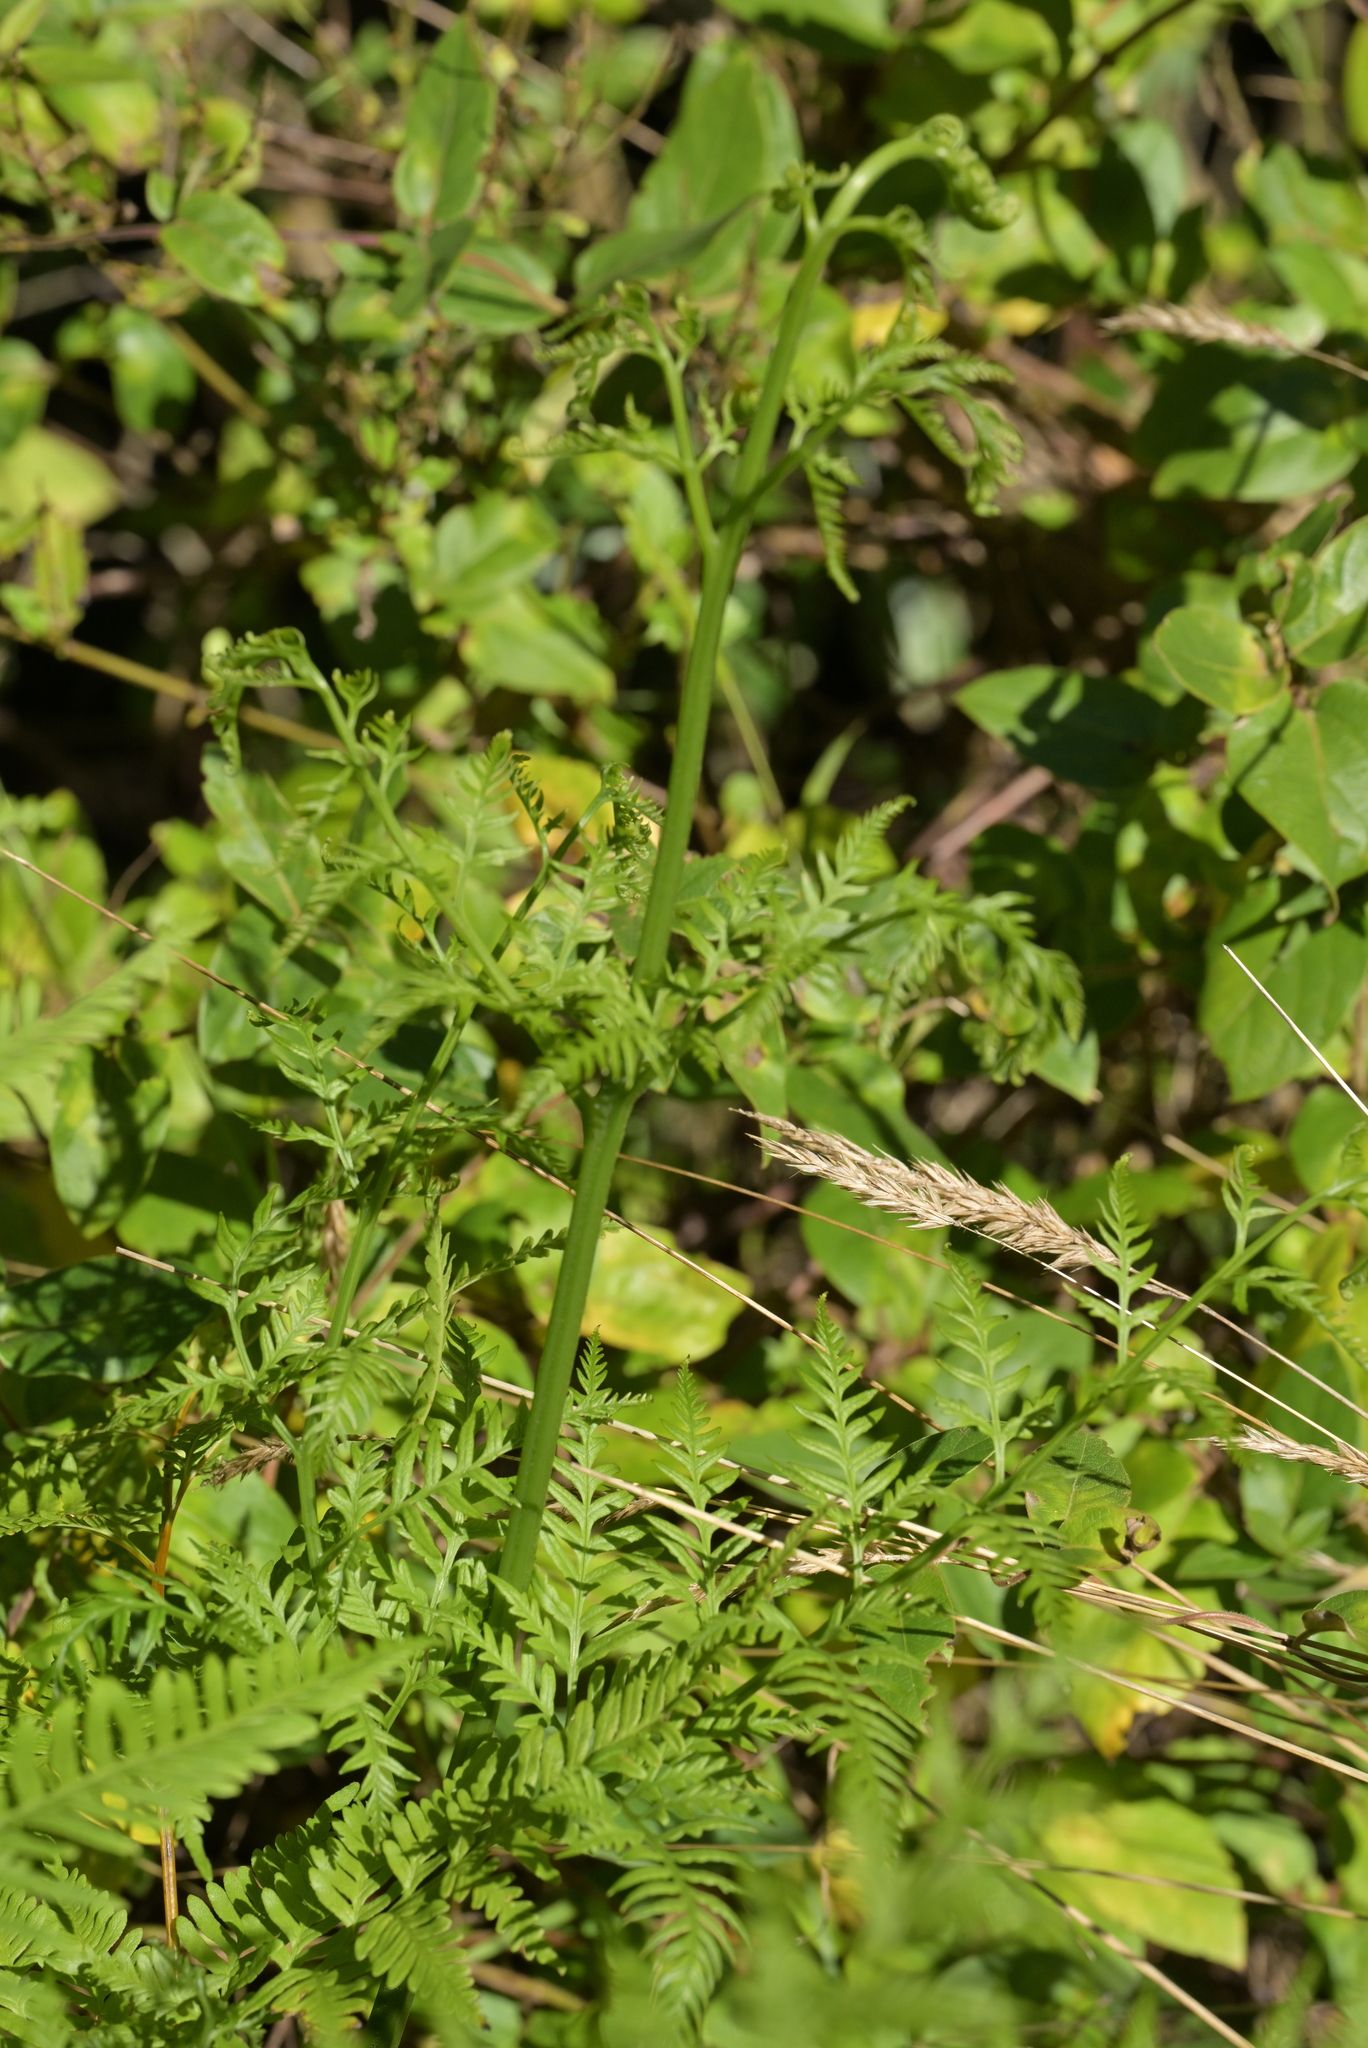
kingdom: Plantae
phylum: Tracheophyta
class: Polypodiopsida
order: Polypodiales
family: Pteridaceae
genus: Pteris
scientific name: Pteris tremula
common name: Australian brake
